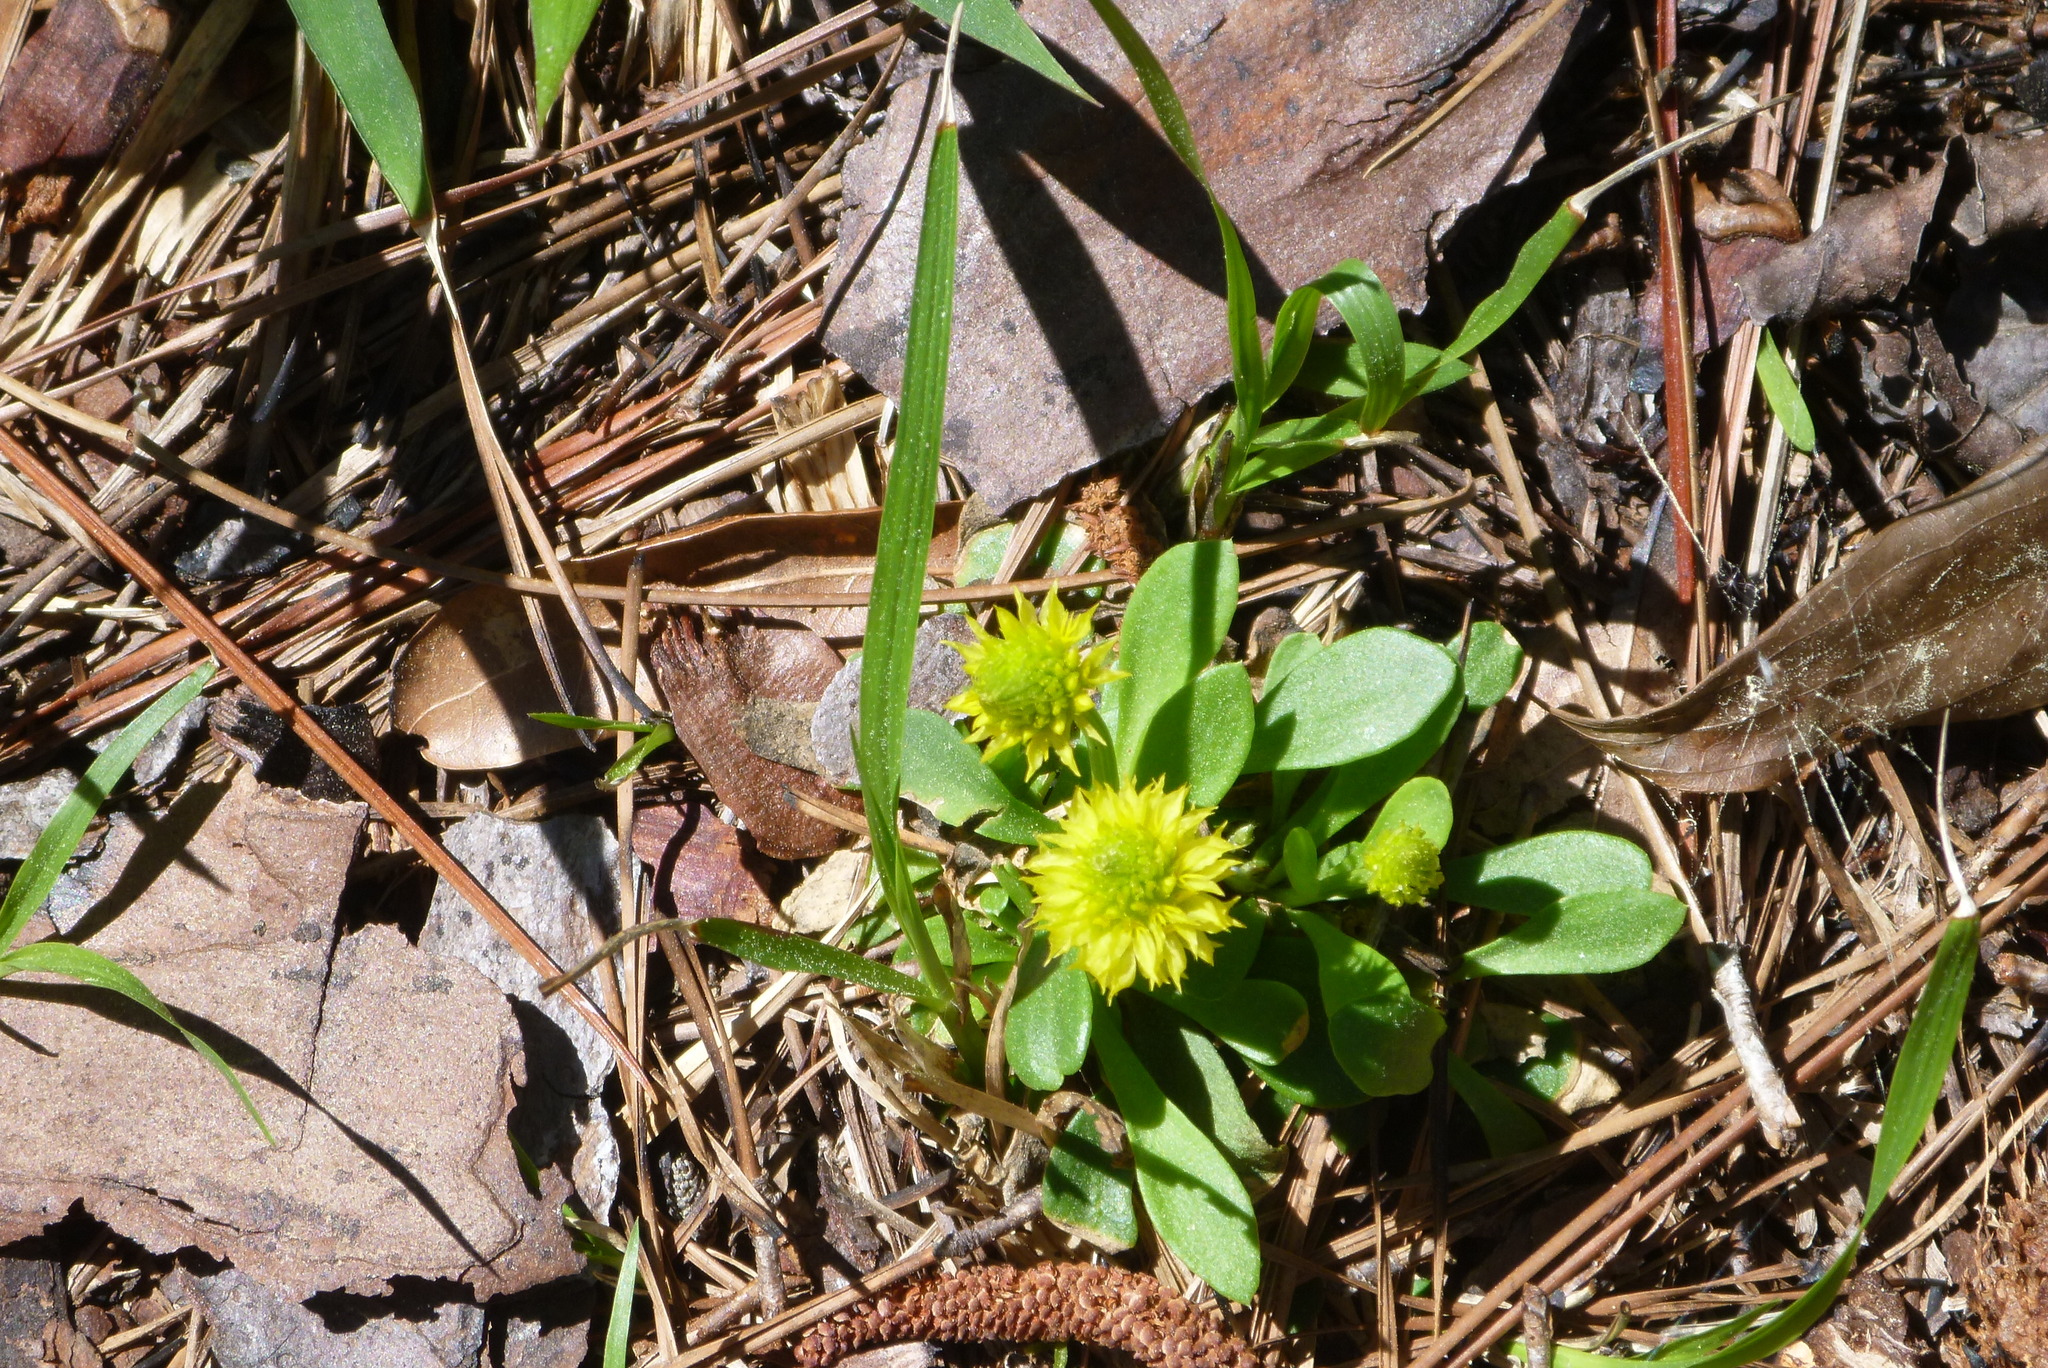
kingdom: Plantae
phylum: Tracheophyta
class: Magnoliopsida
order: Fabales
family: Polygalaceae
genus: Polygala
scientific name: Polygala nana
